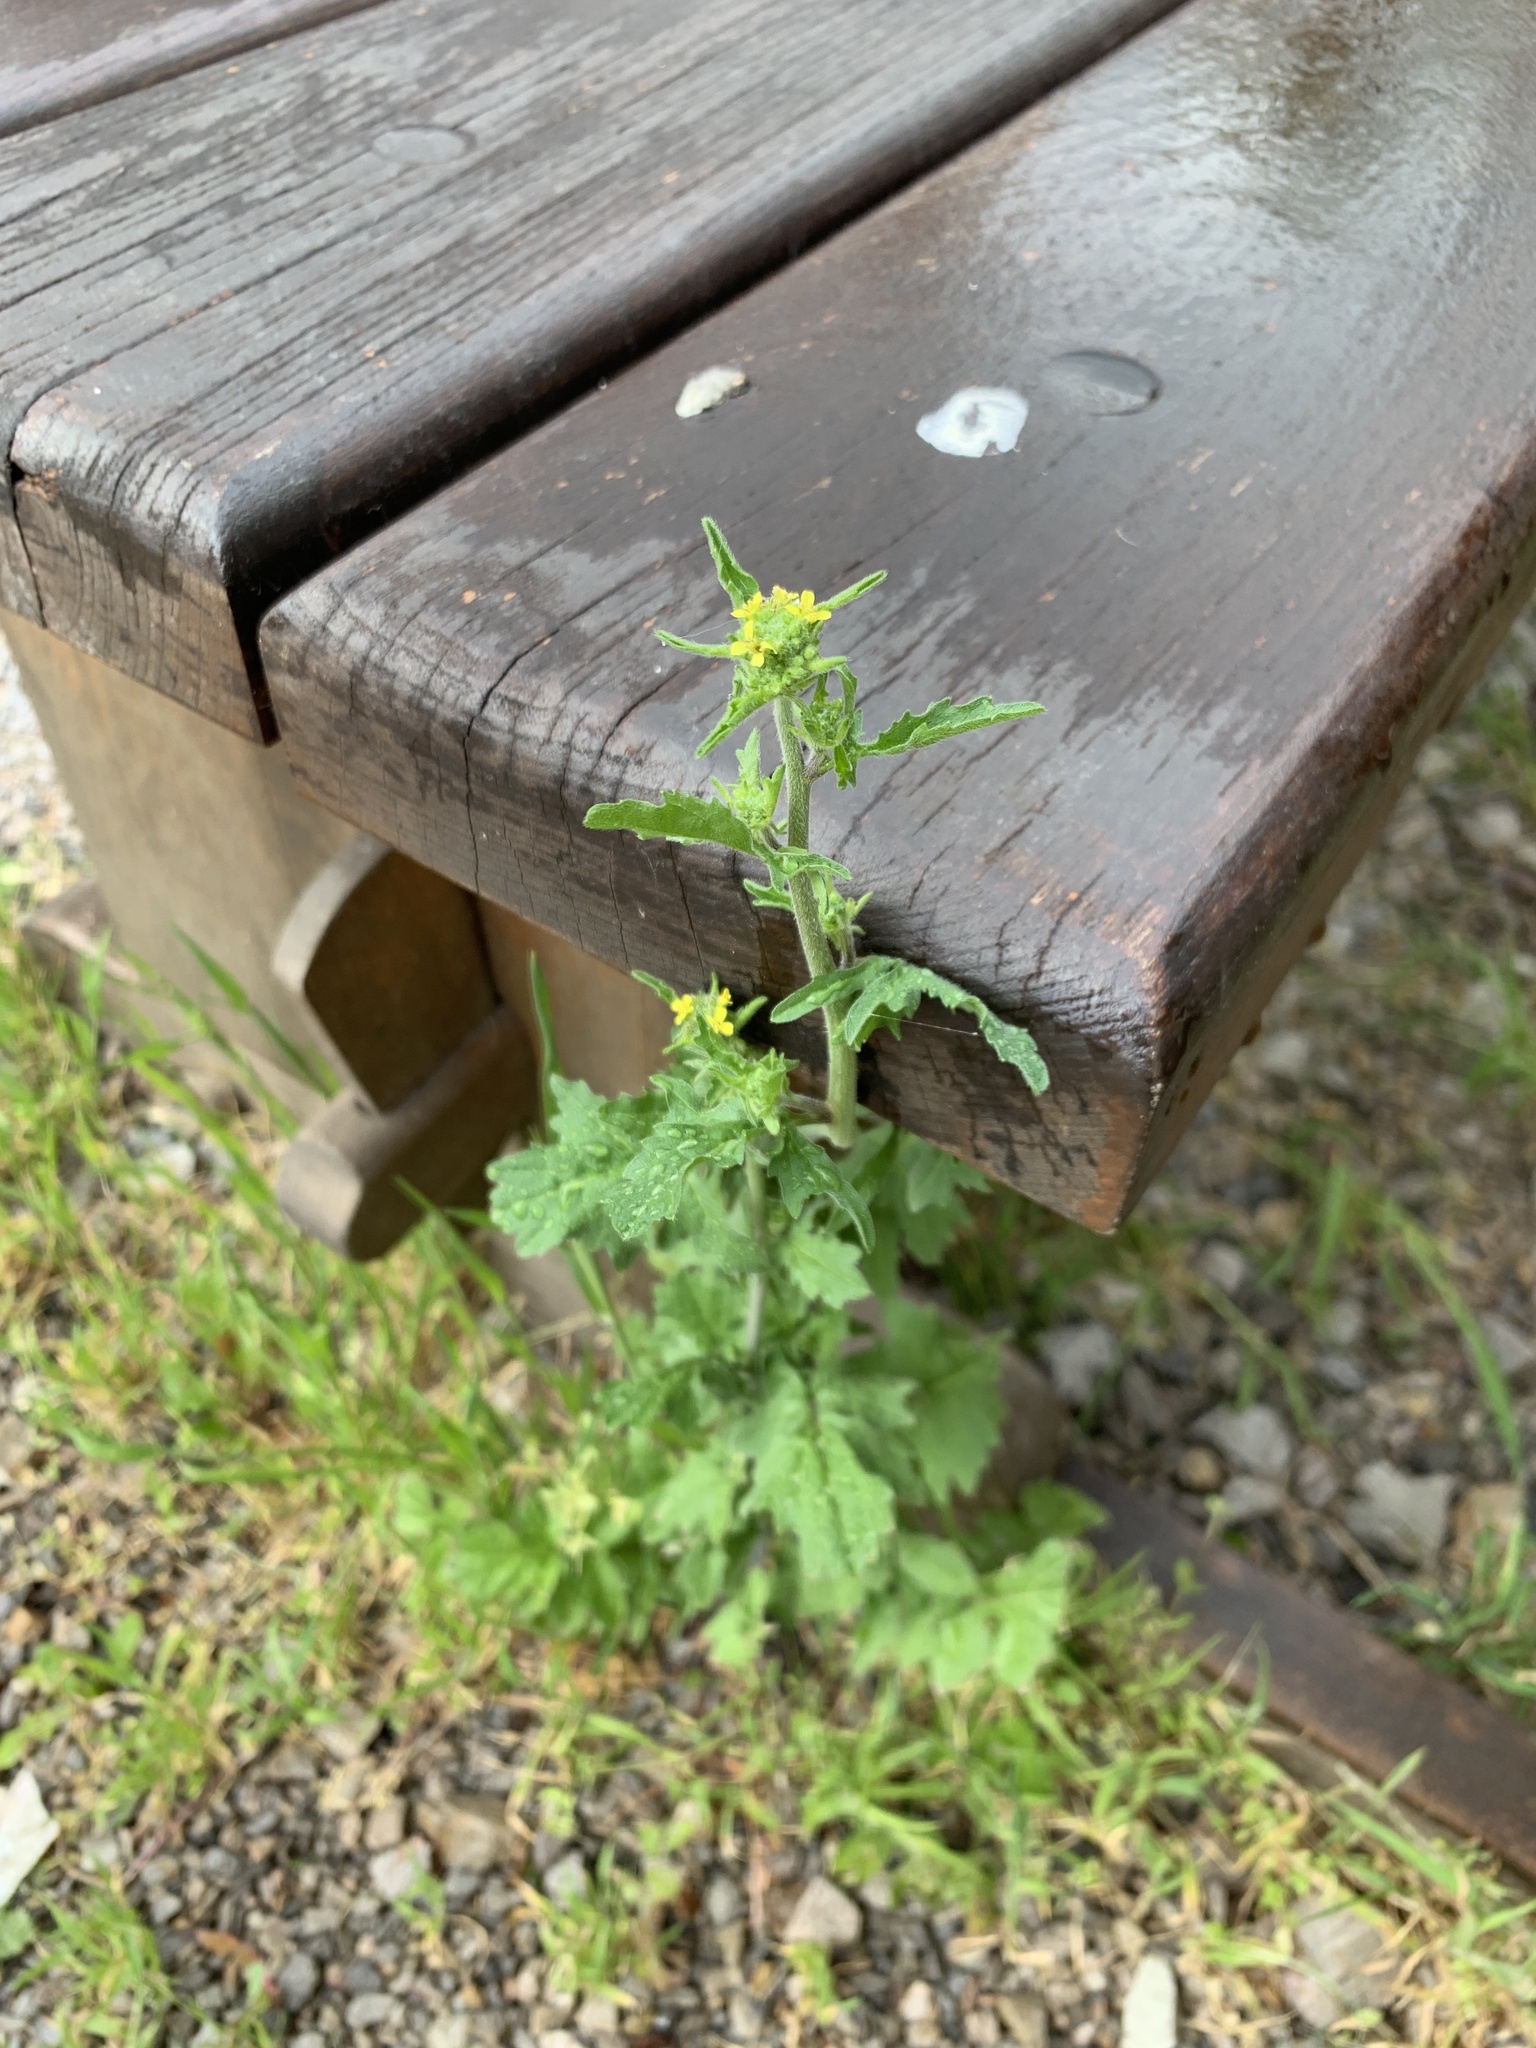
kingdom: Plantae
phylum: Tracheophyta
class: Magnoliopsida
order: Brassicales
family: Brassicaceae
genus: Sisymbrium
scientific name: Sisymbrium officinale
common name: Hedge mustard
